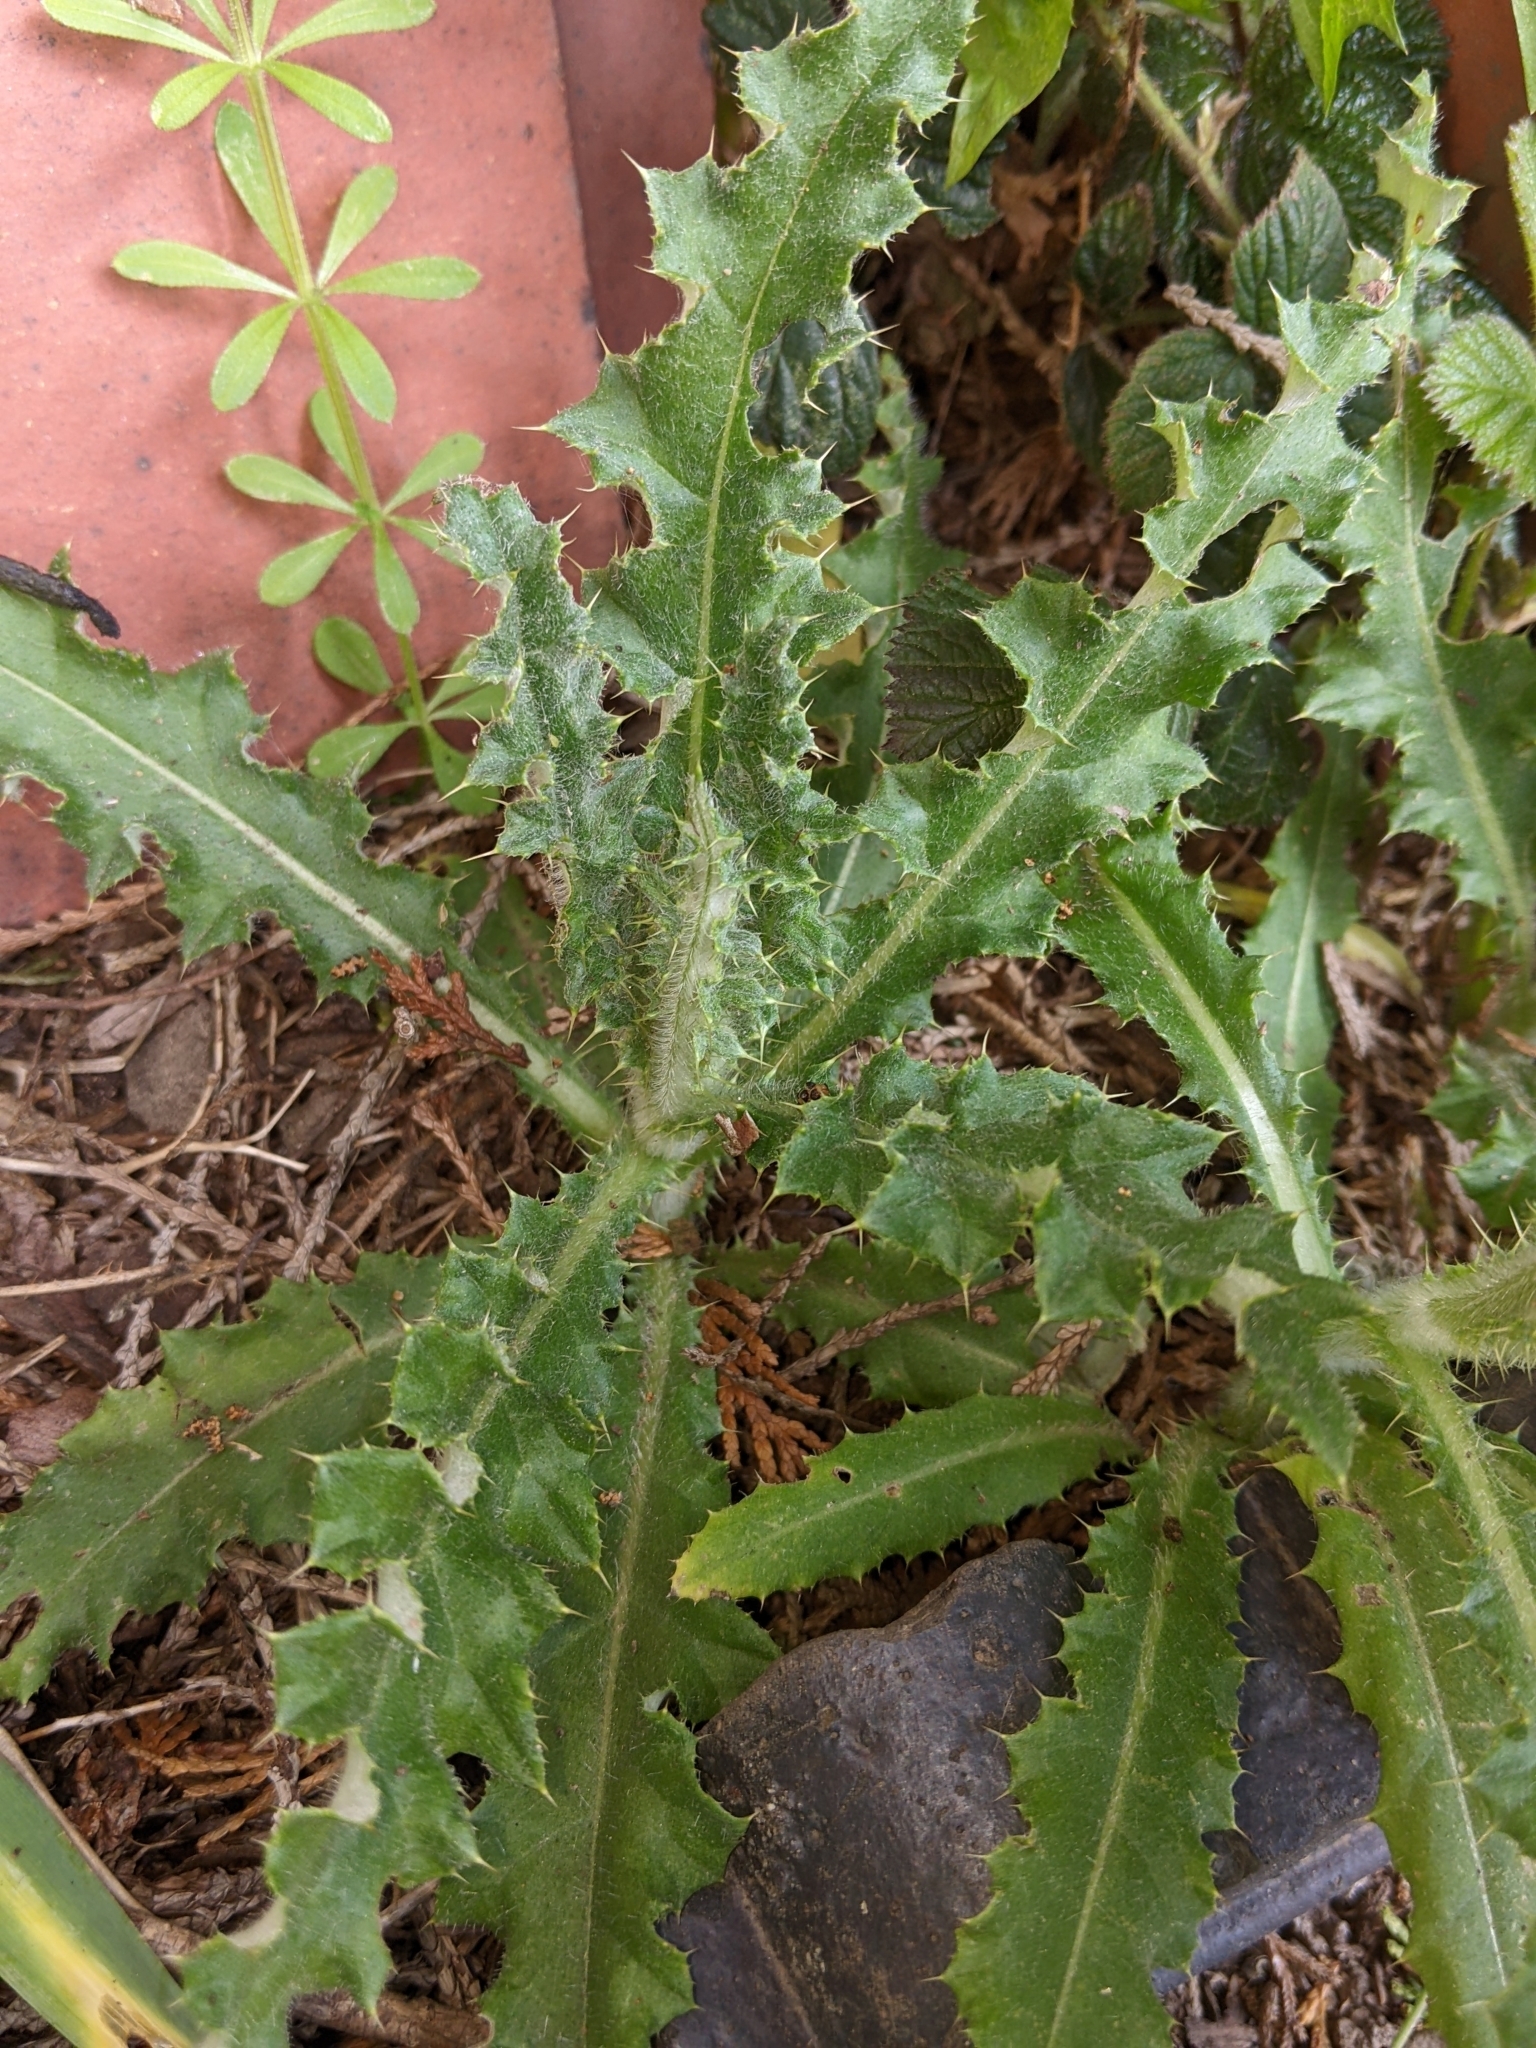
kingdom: Plantae
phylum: Tracheophyta
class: Magnoliopsida
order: Asterales
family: Asteraceae
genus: Cirsium
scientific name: Cirsium arvense
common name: Creeping thistle
